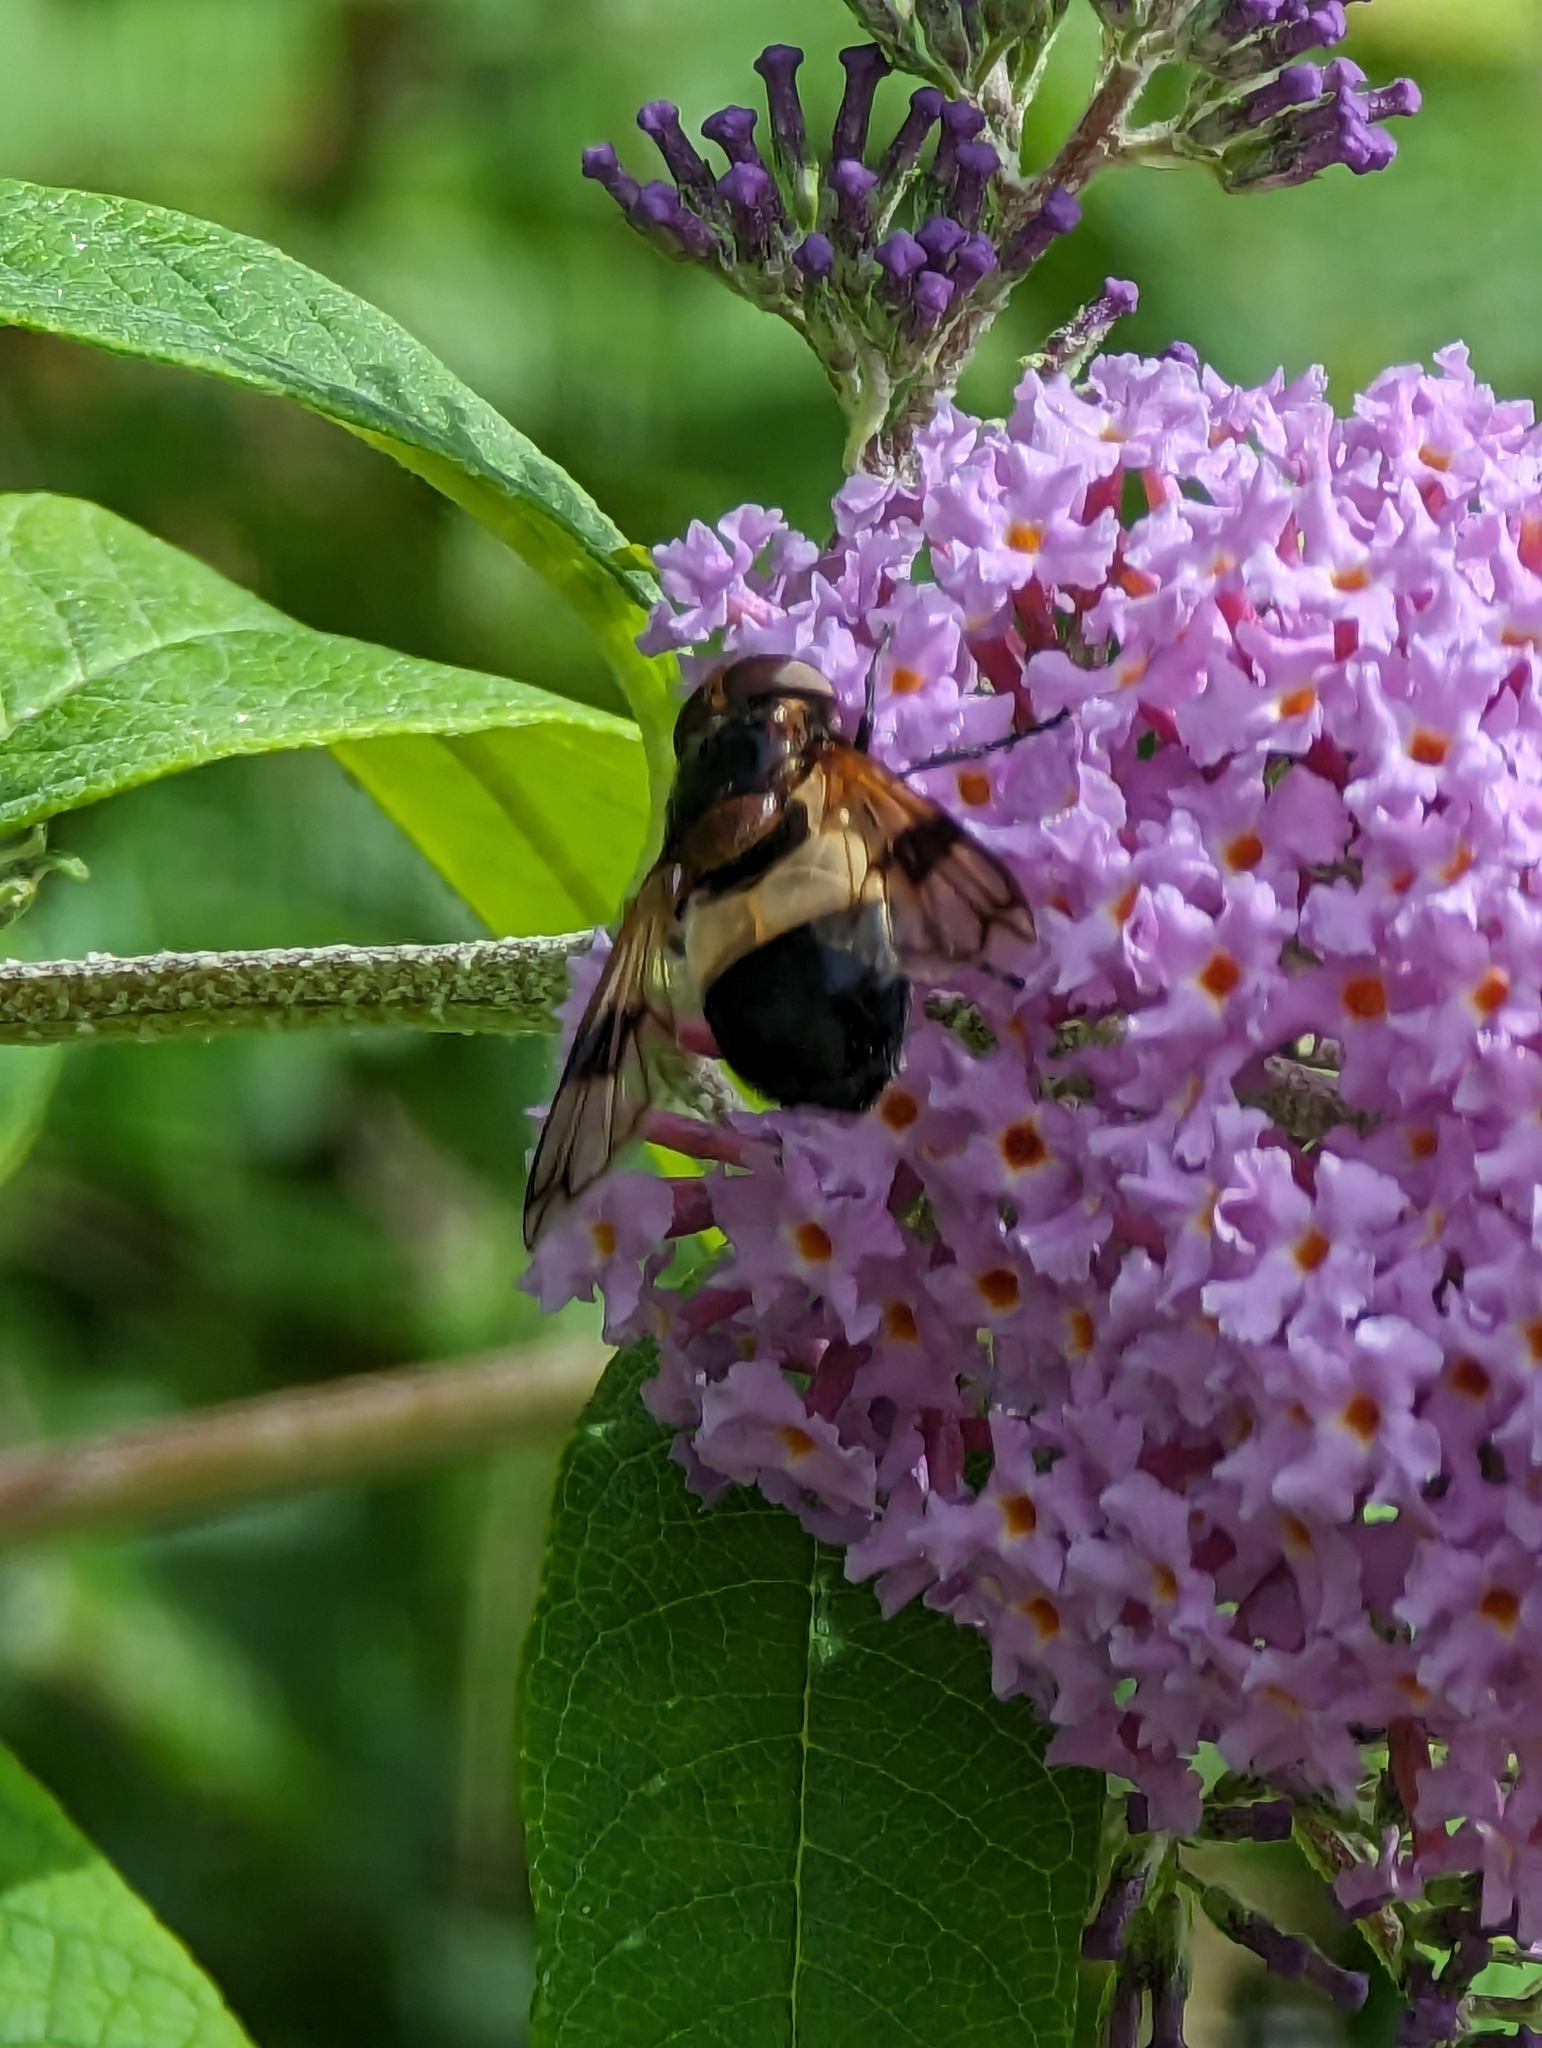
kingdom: Animalia
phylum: Arthropoda
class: Insecta
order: Diptera
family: Syrphidae
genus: Volucella
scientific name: Volucella pellucens
